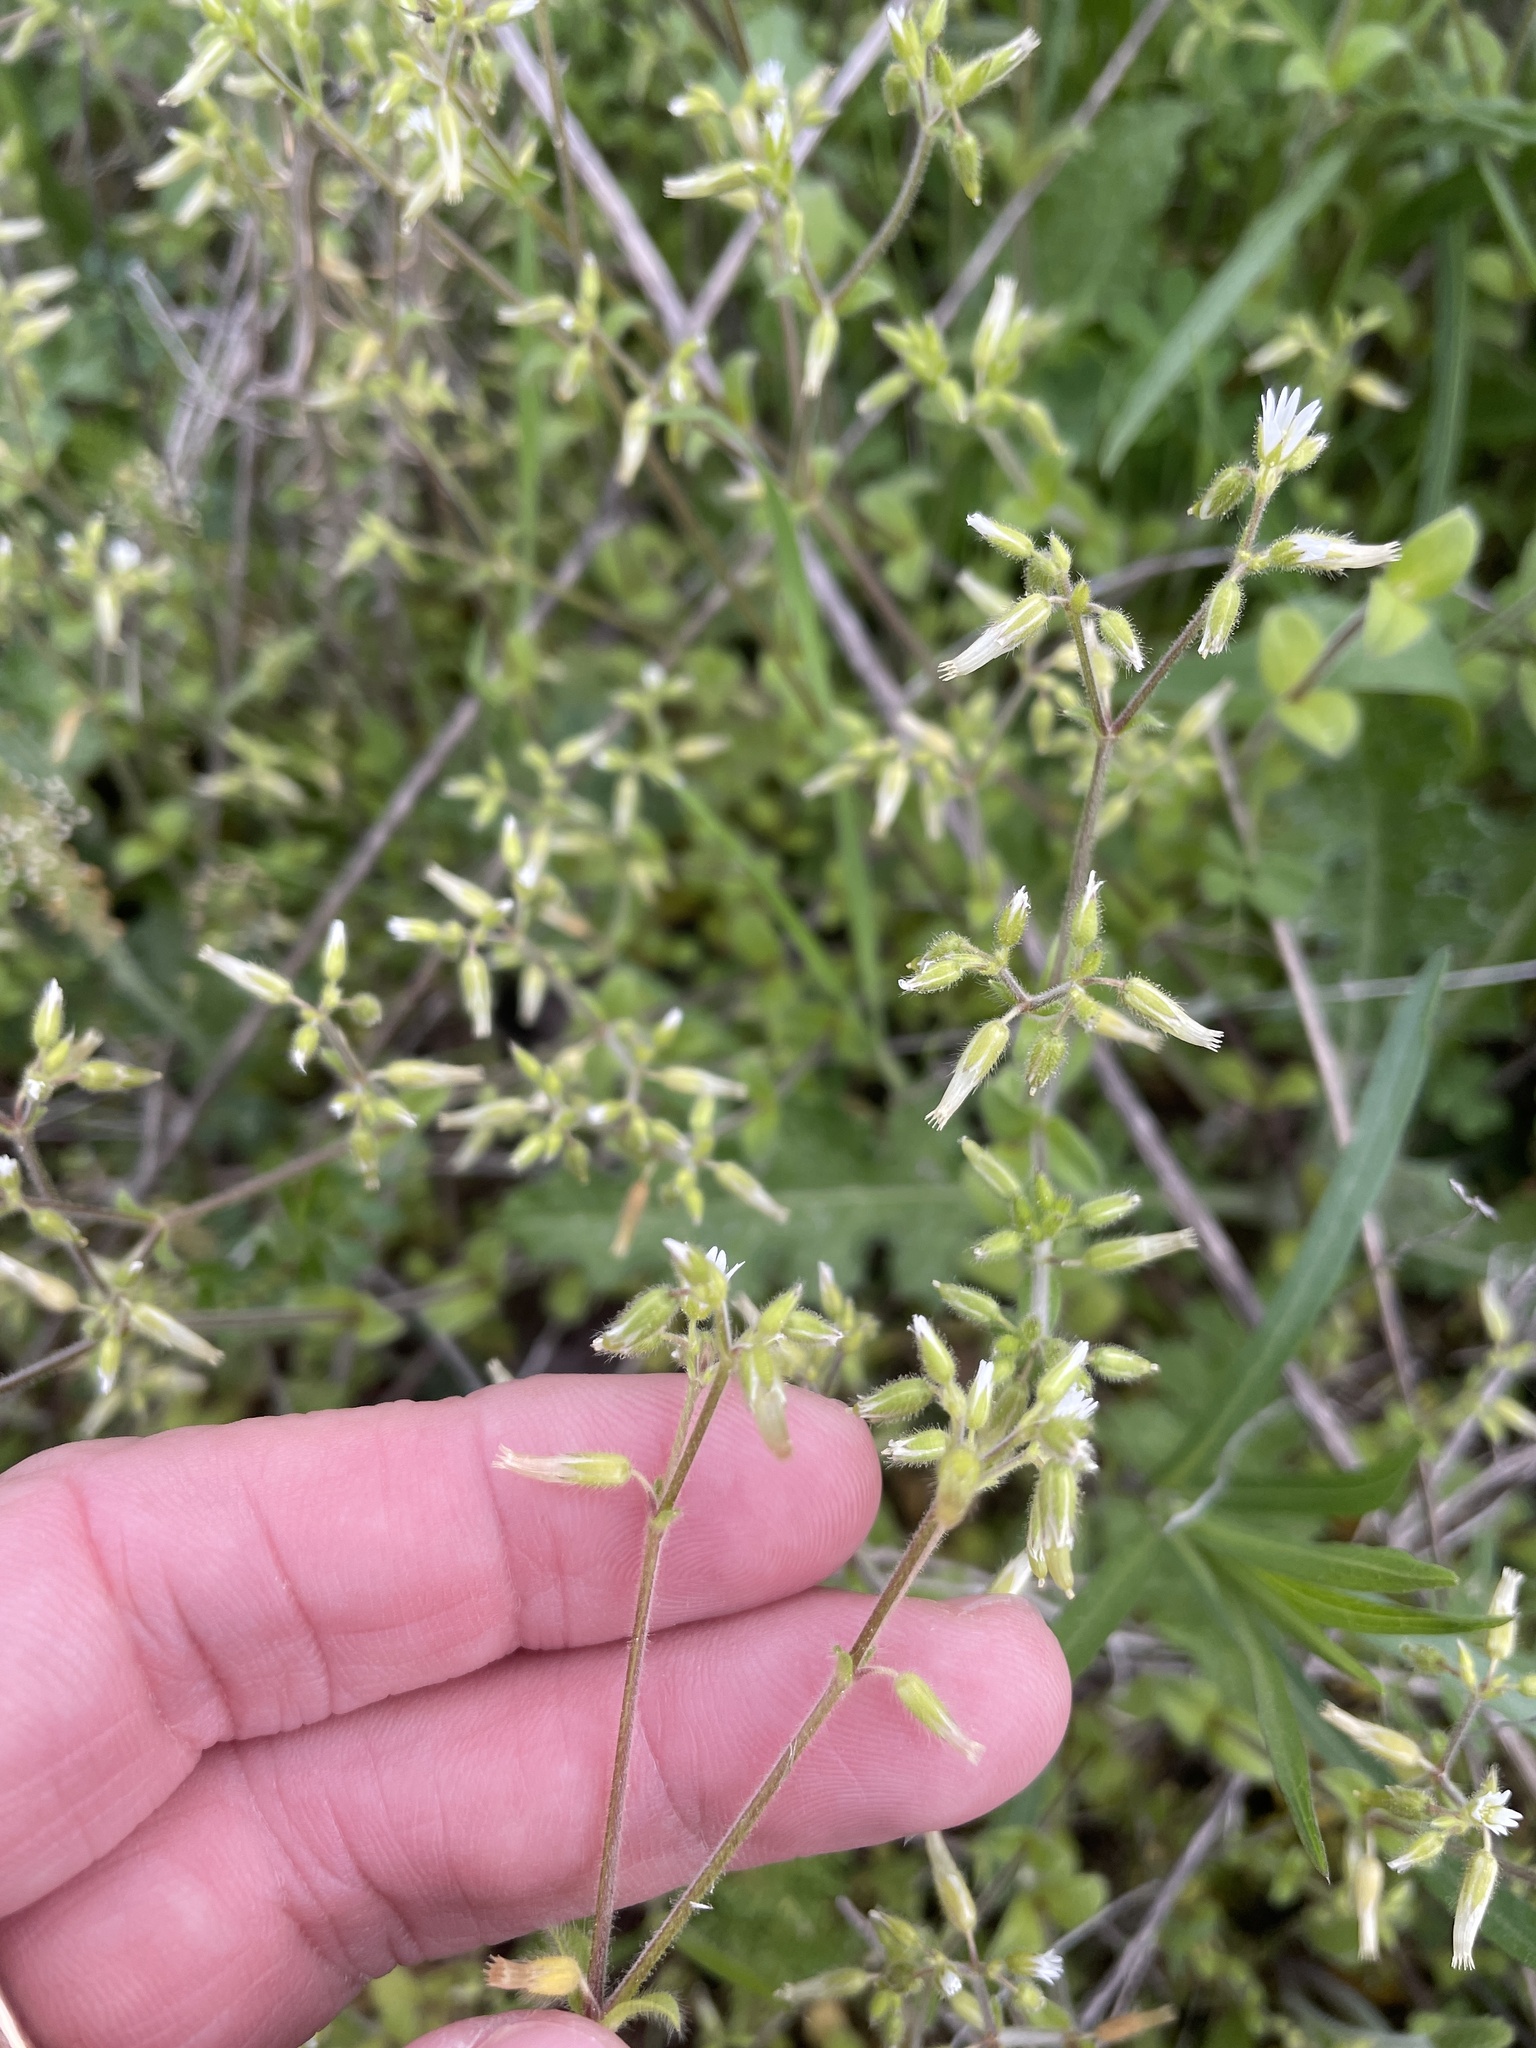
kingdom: Plantae
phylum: Tracheophyta
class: Magnoliopsida
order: Caryophyllales
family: Caryophyllaceae
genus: Cerastium
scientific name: Cerastium glomeratum
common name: Sticky chickweed
